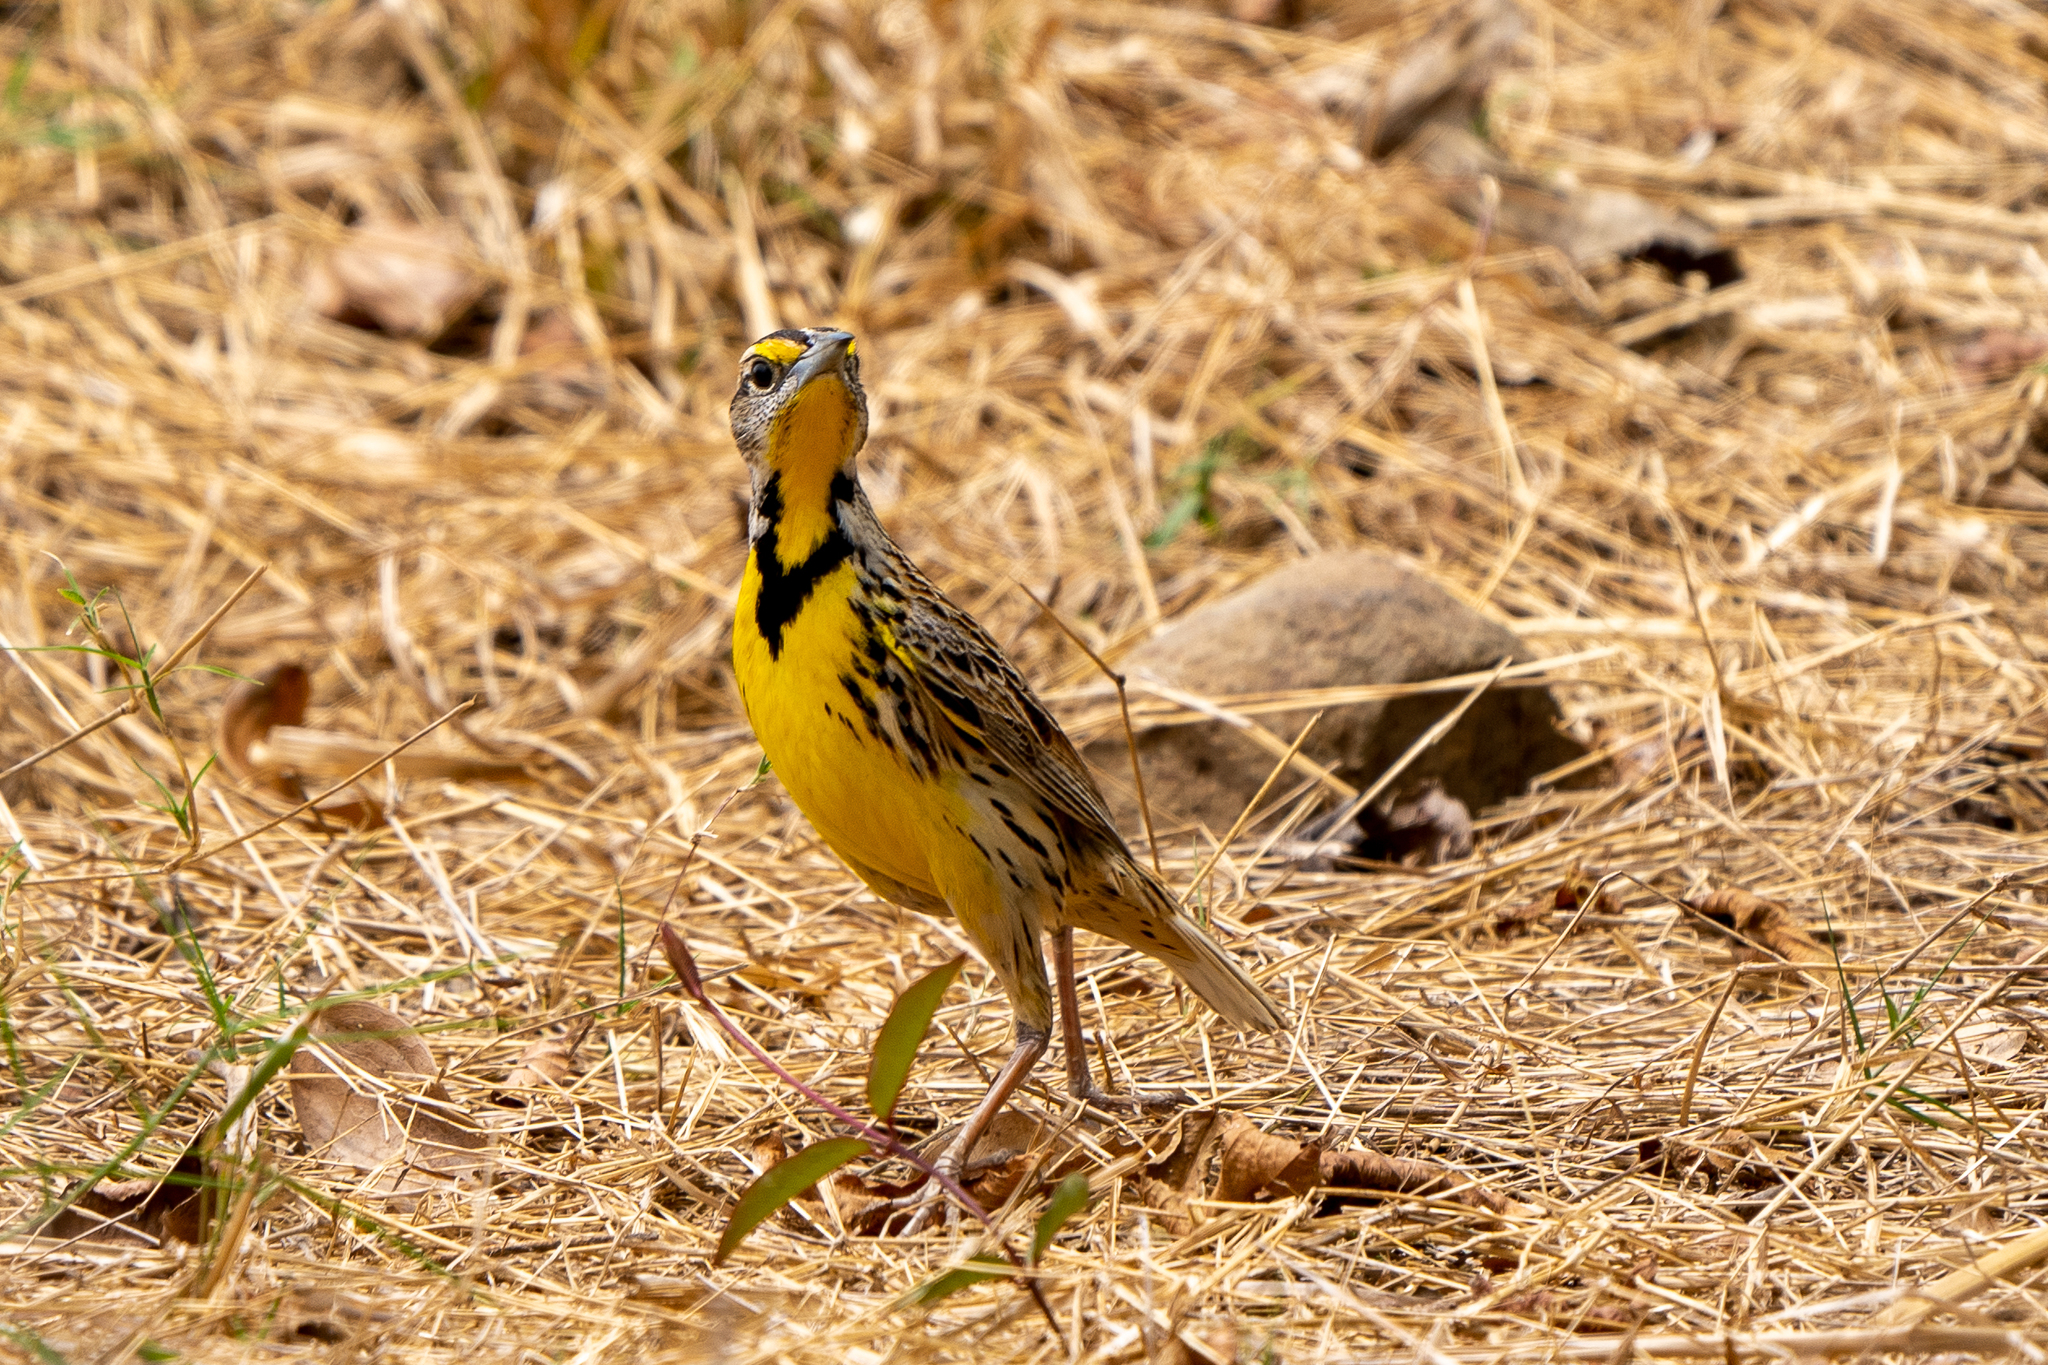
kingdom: Animalia
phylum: Chordata
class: Aves
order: Passeriformes
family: Icteridae
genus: Sturnella
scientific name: Sturnella magna
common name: Eastern meadowlark
